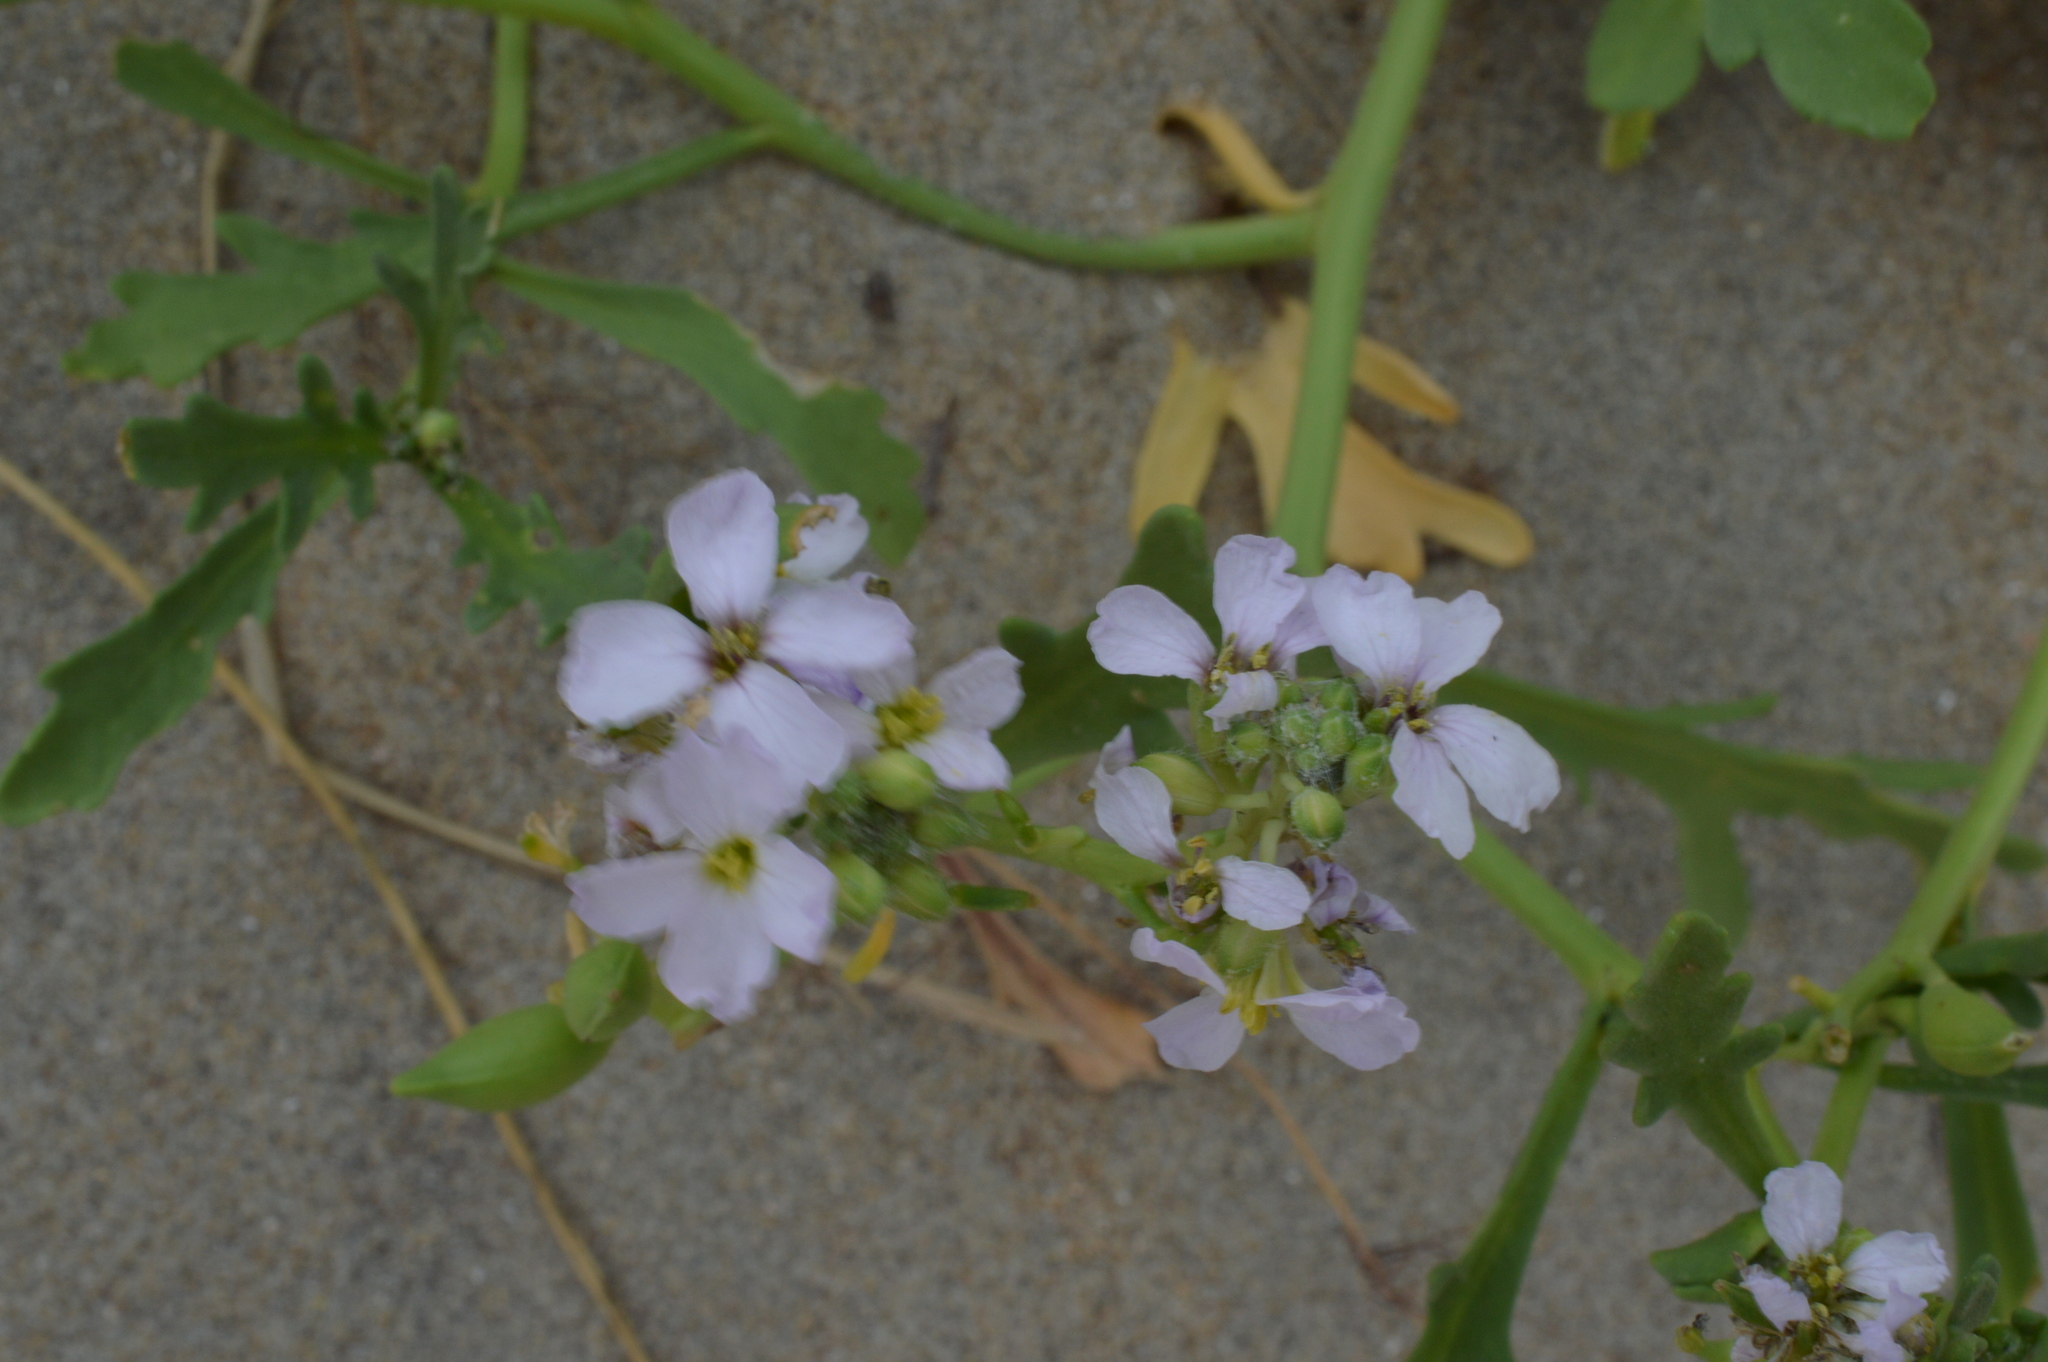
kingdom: Plantae
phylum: Tracheophyta
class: Magnoliopsida
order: Brassicales
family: Brassicaceae
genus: Cakile
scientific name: Cakile maritima
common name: Sea rocket
